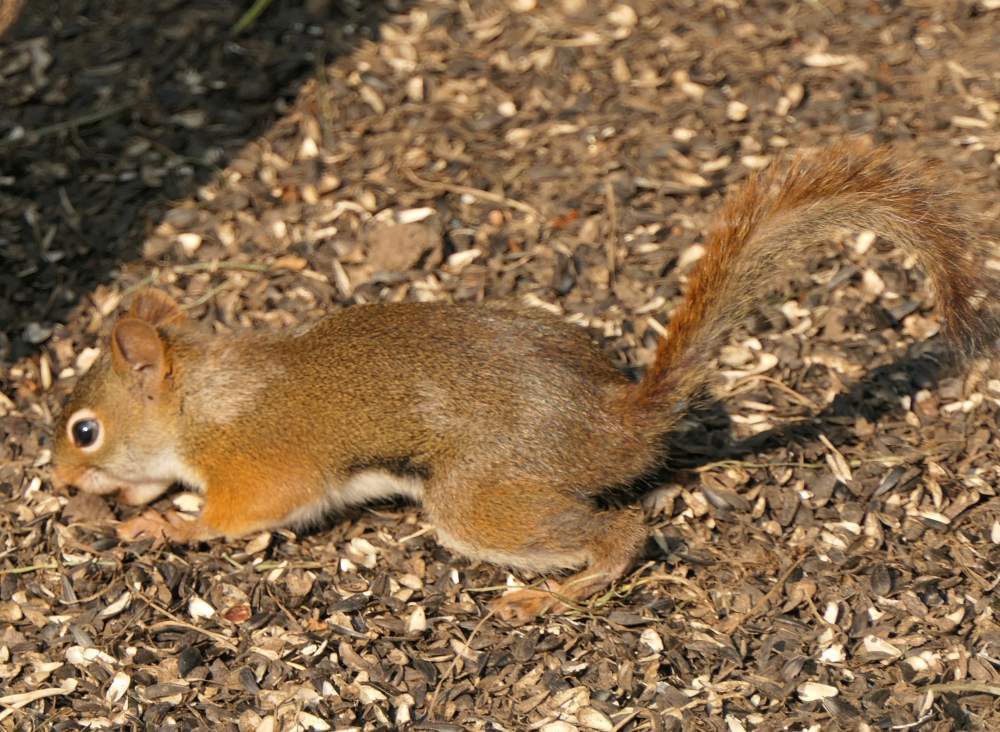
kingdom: Animalia
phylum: Chordata
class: Mammalia
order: Rodentia
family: Sciuridae
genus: Tamiasciurus
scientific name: Tamiasciurus hudsonicus
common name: Red squirrel
